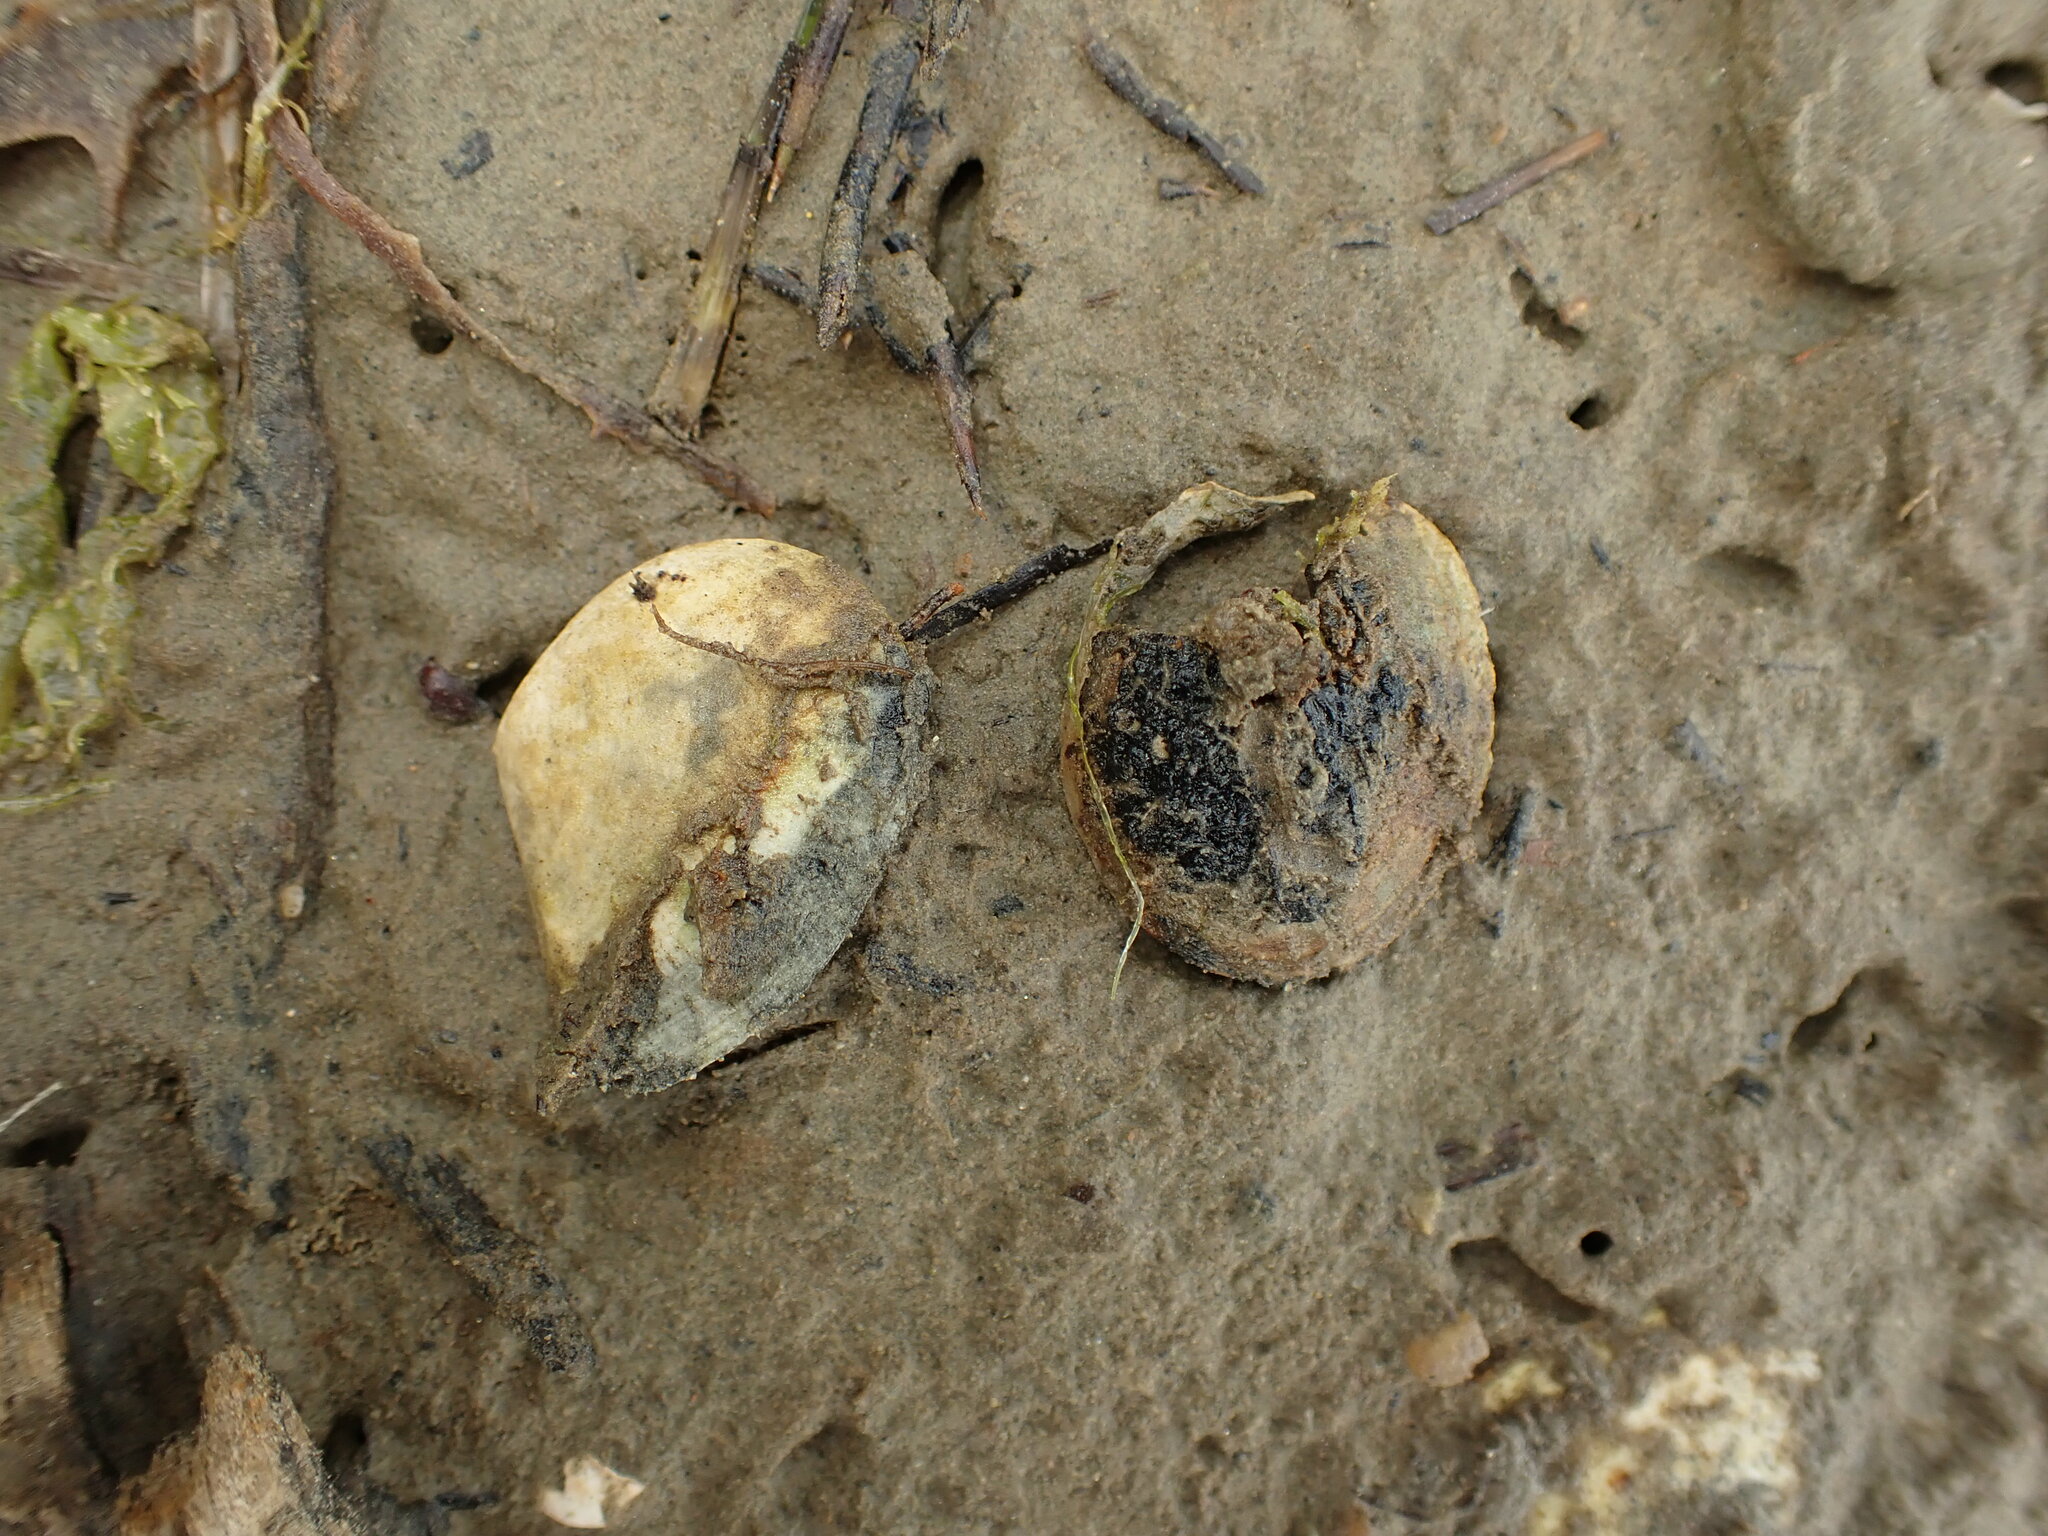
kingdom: Animalia
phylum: Mollusca
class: Bivalvia
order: Cardiida
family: Tellinidae
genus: Macomona
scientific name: Macomona liliana
